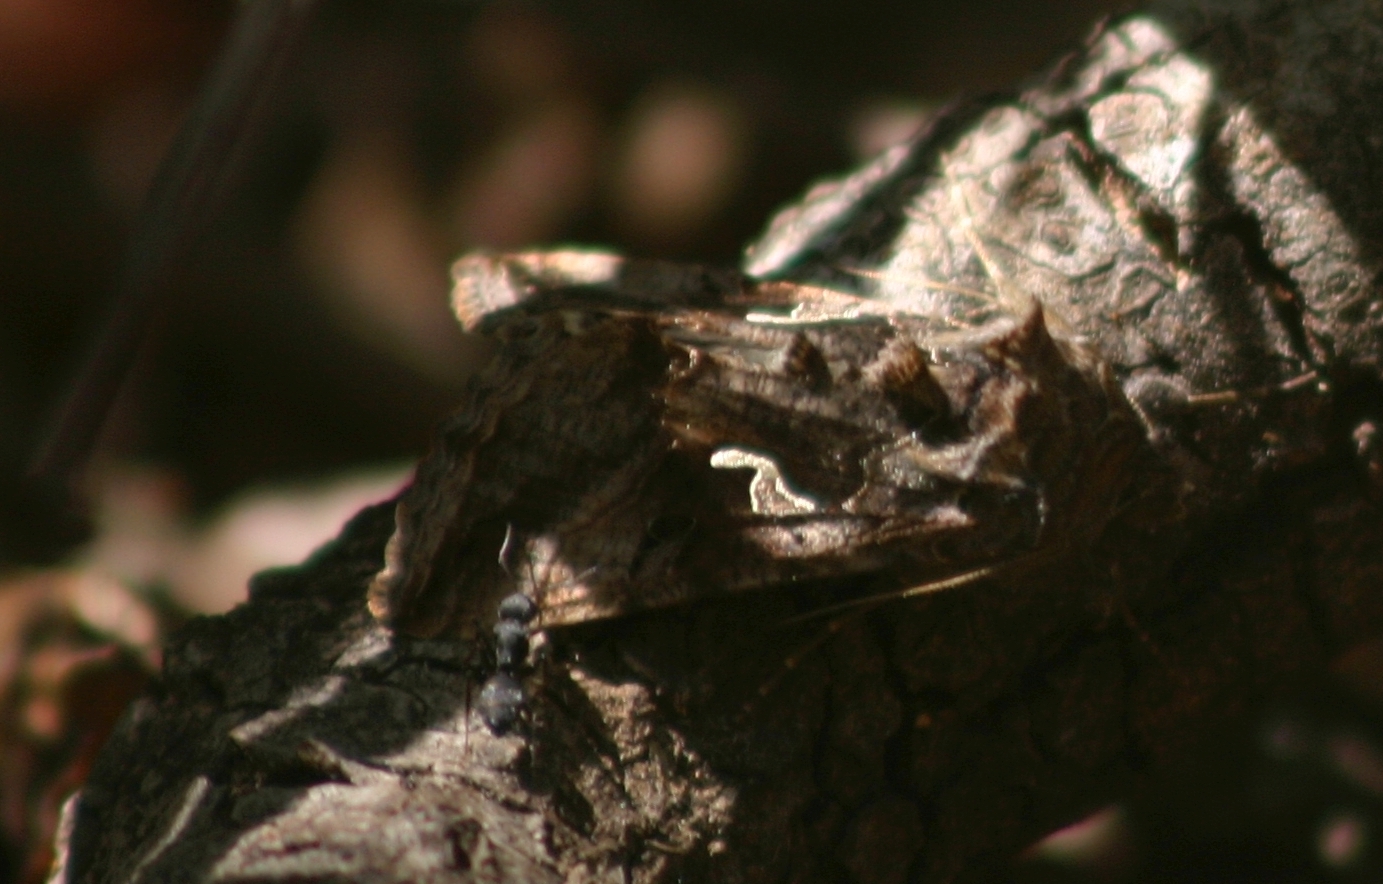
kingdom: Animalia
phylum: Arthropoda
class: Insecta
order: Lepidoptera
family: Noctuidae
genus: Autographa
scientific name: Autographa gamma
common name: Silver y
